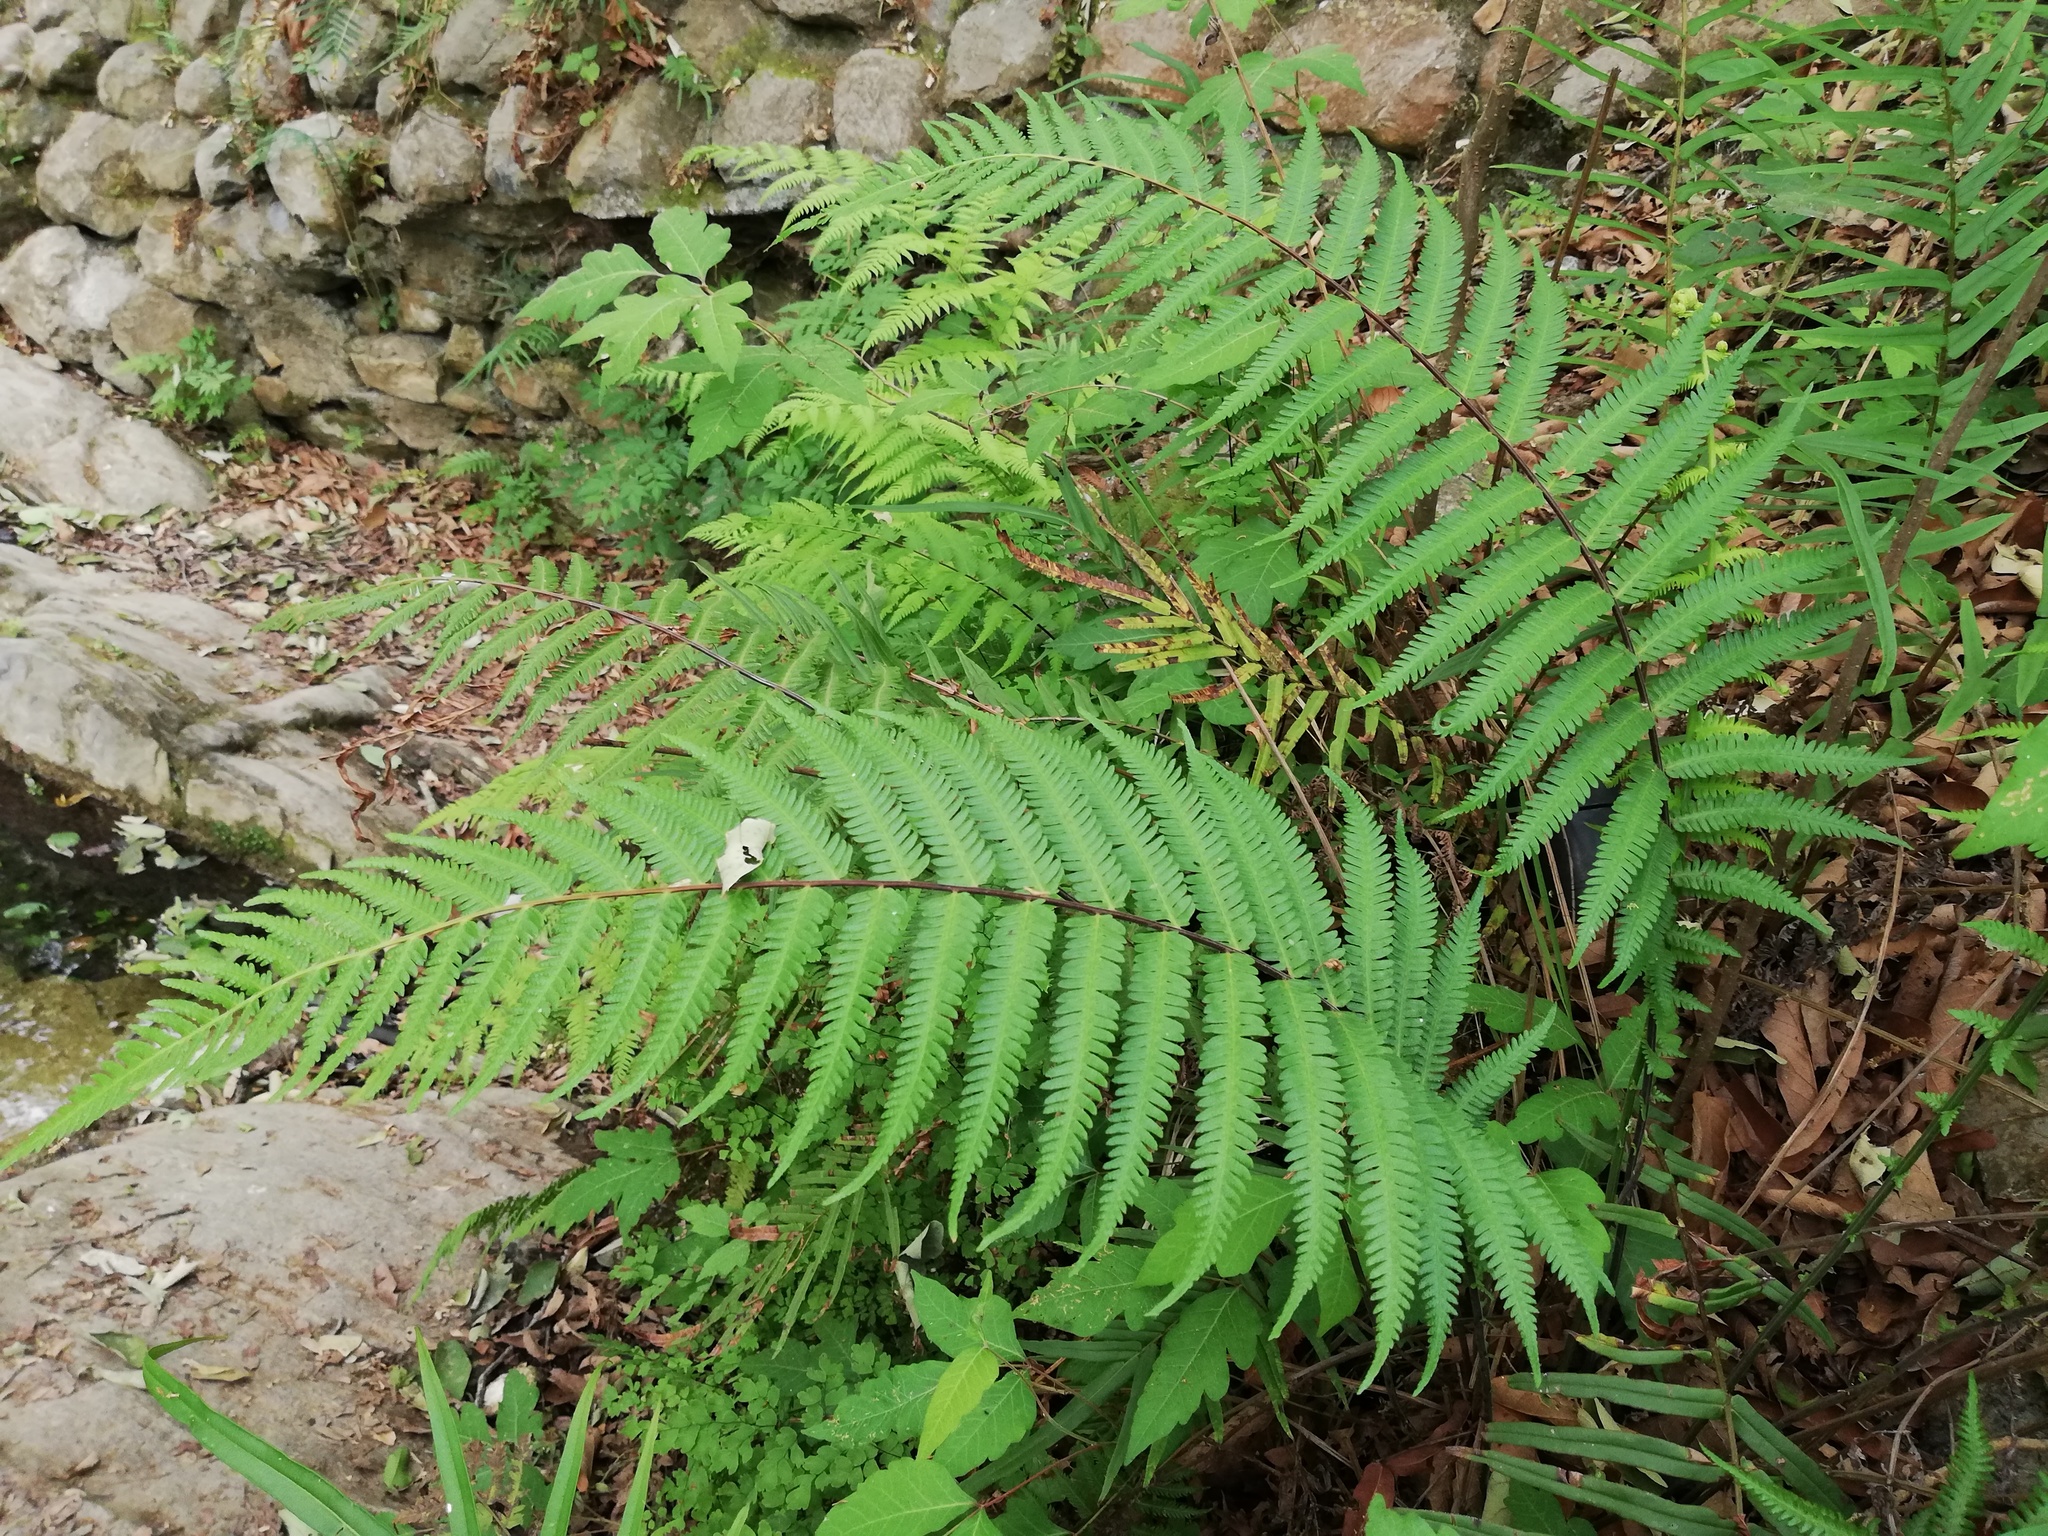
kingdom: Plantae
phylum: Tracheophyta
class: Polypodiopsida
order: Polypodiales
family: Thelypteridaceae
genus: Pelazoneuron
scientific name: Pelazoneuron ovatum
